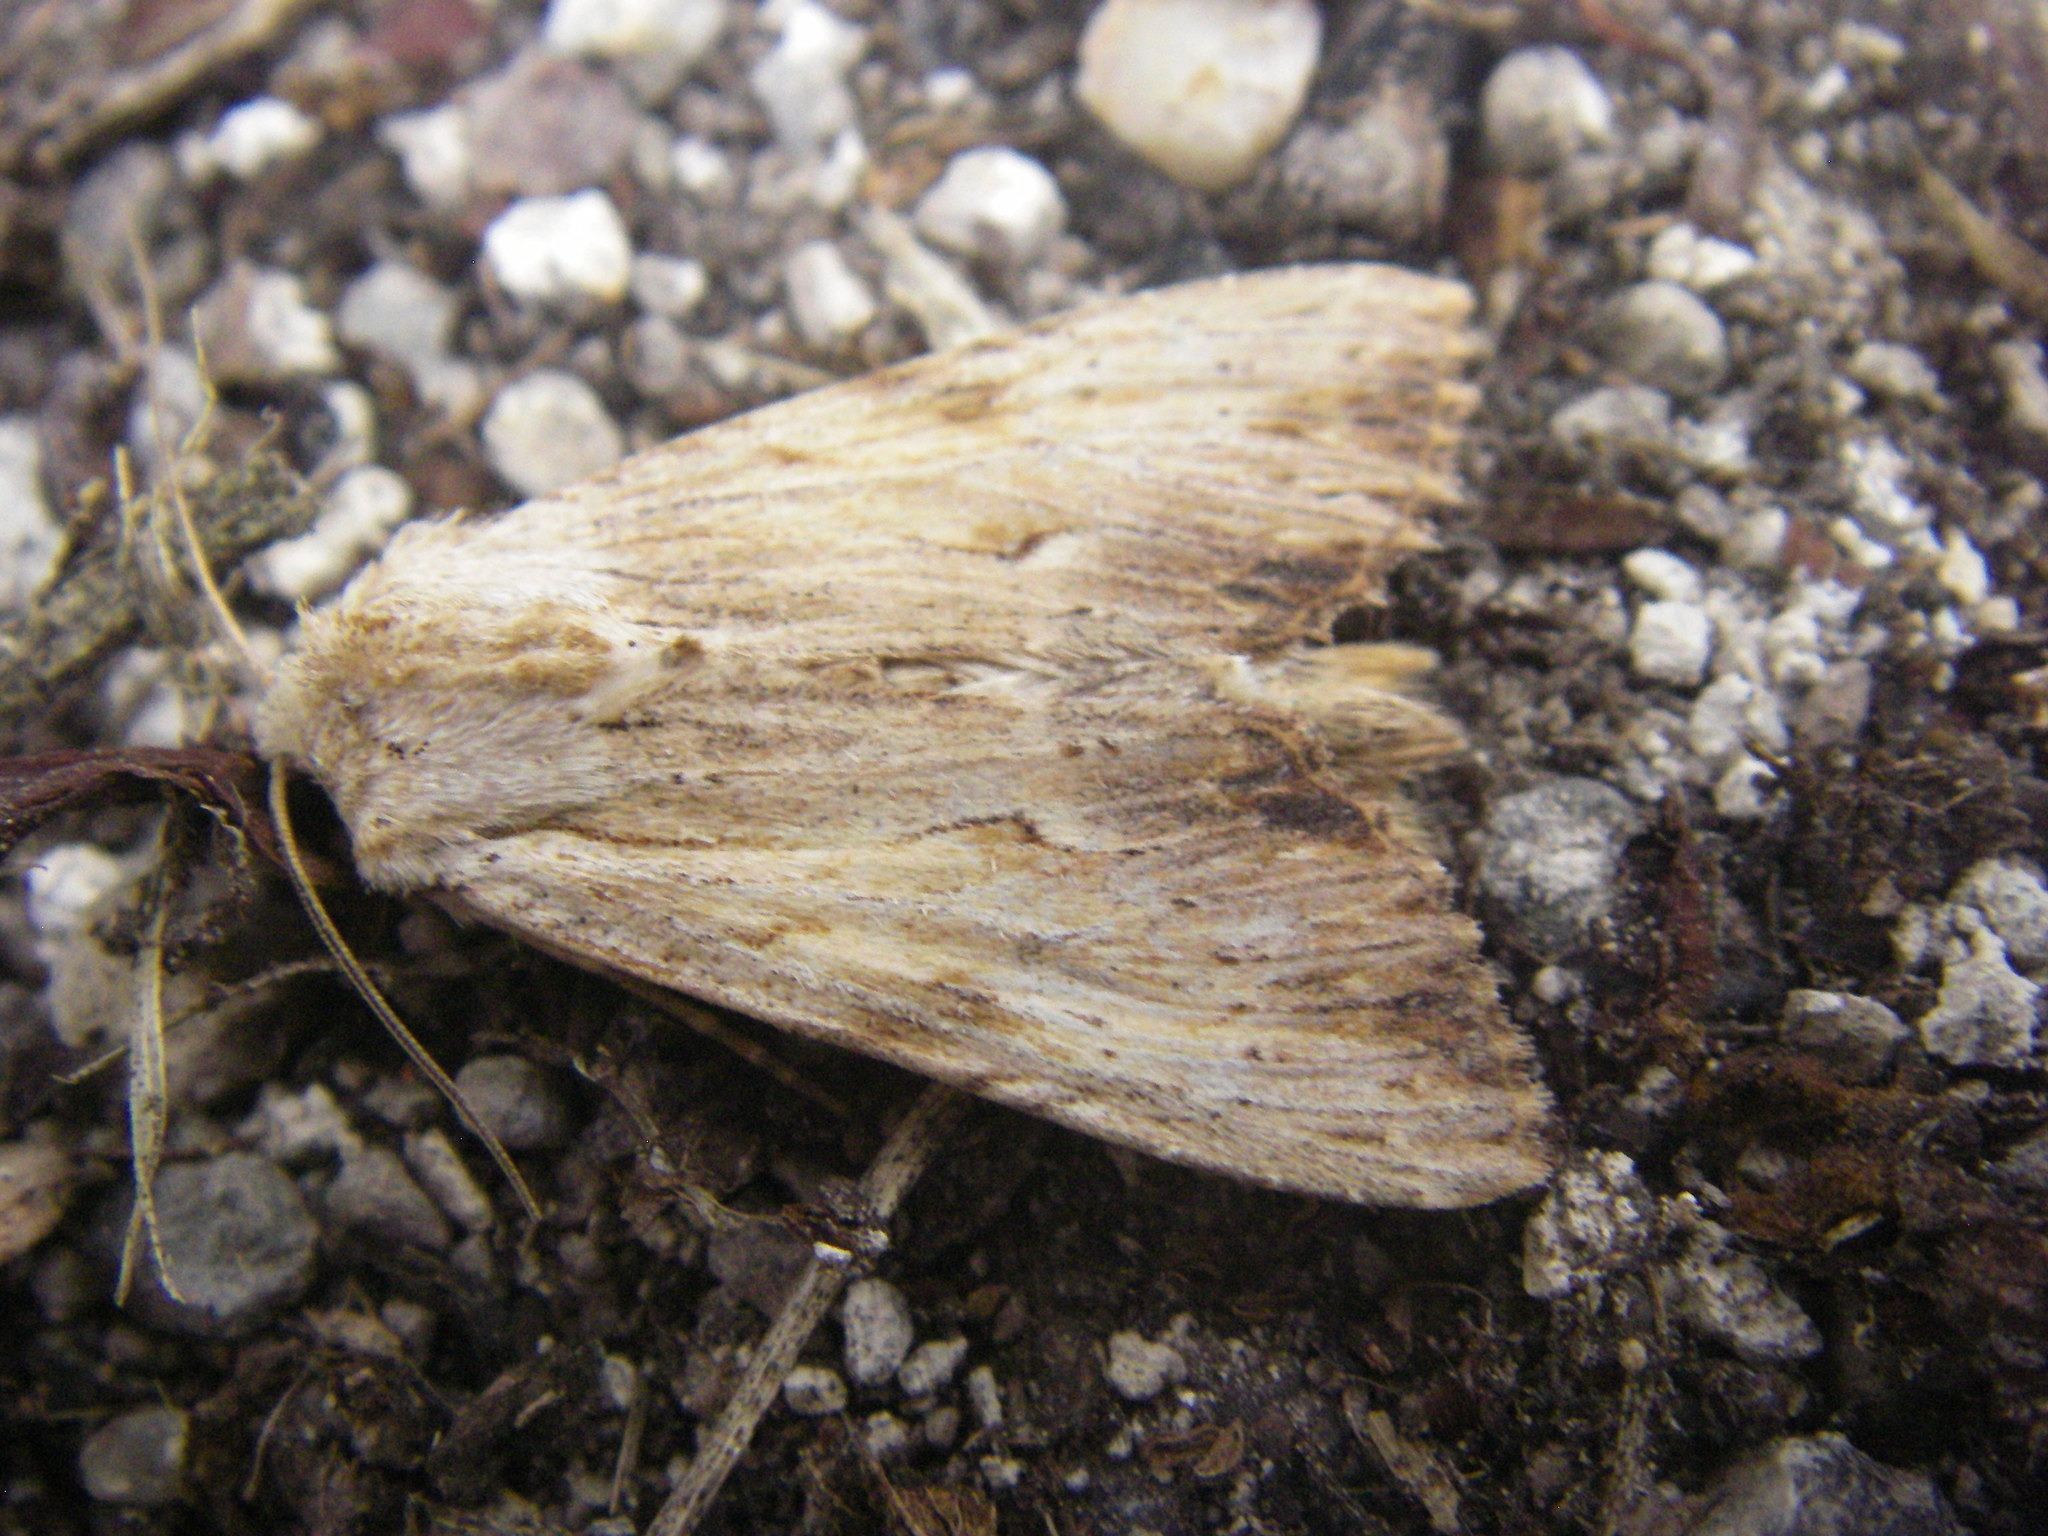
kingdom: Animalia
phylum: Arthropoda
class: Insecta
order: Lepidoptera
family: Noctuidae
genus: Apamea
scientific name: Apamea lithoxylaea
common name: Light arches
